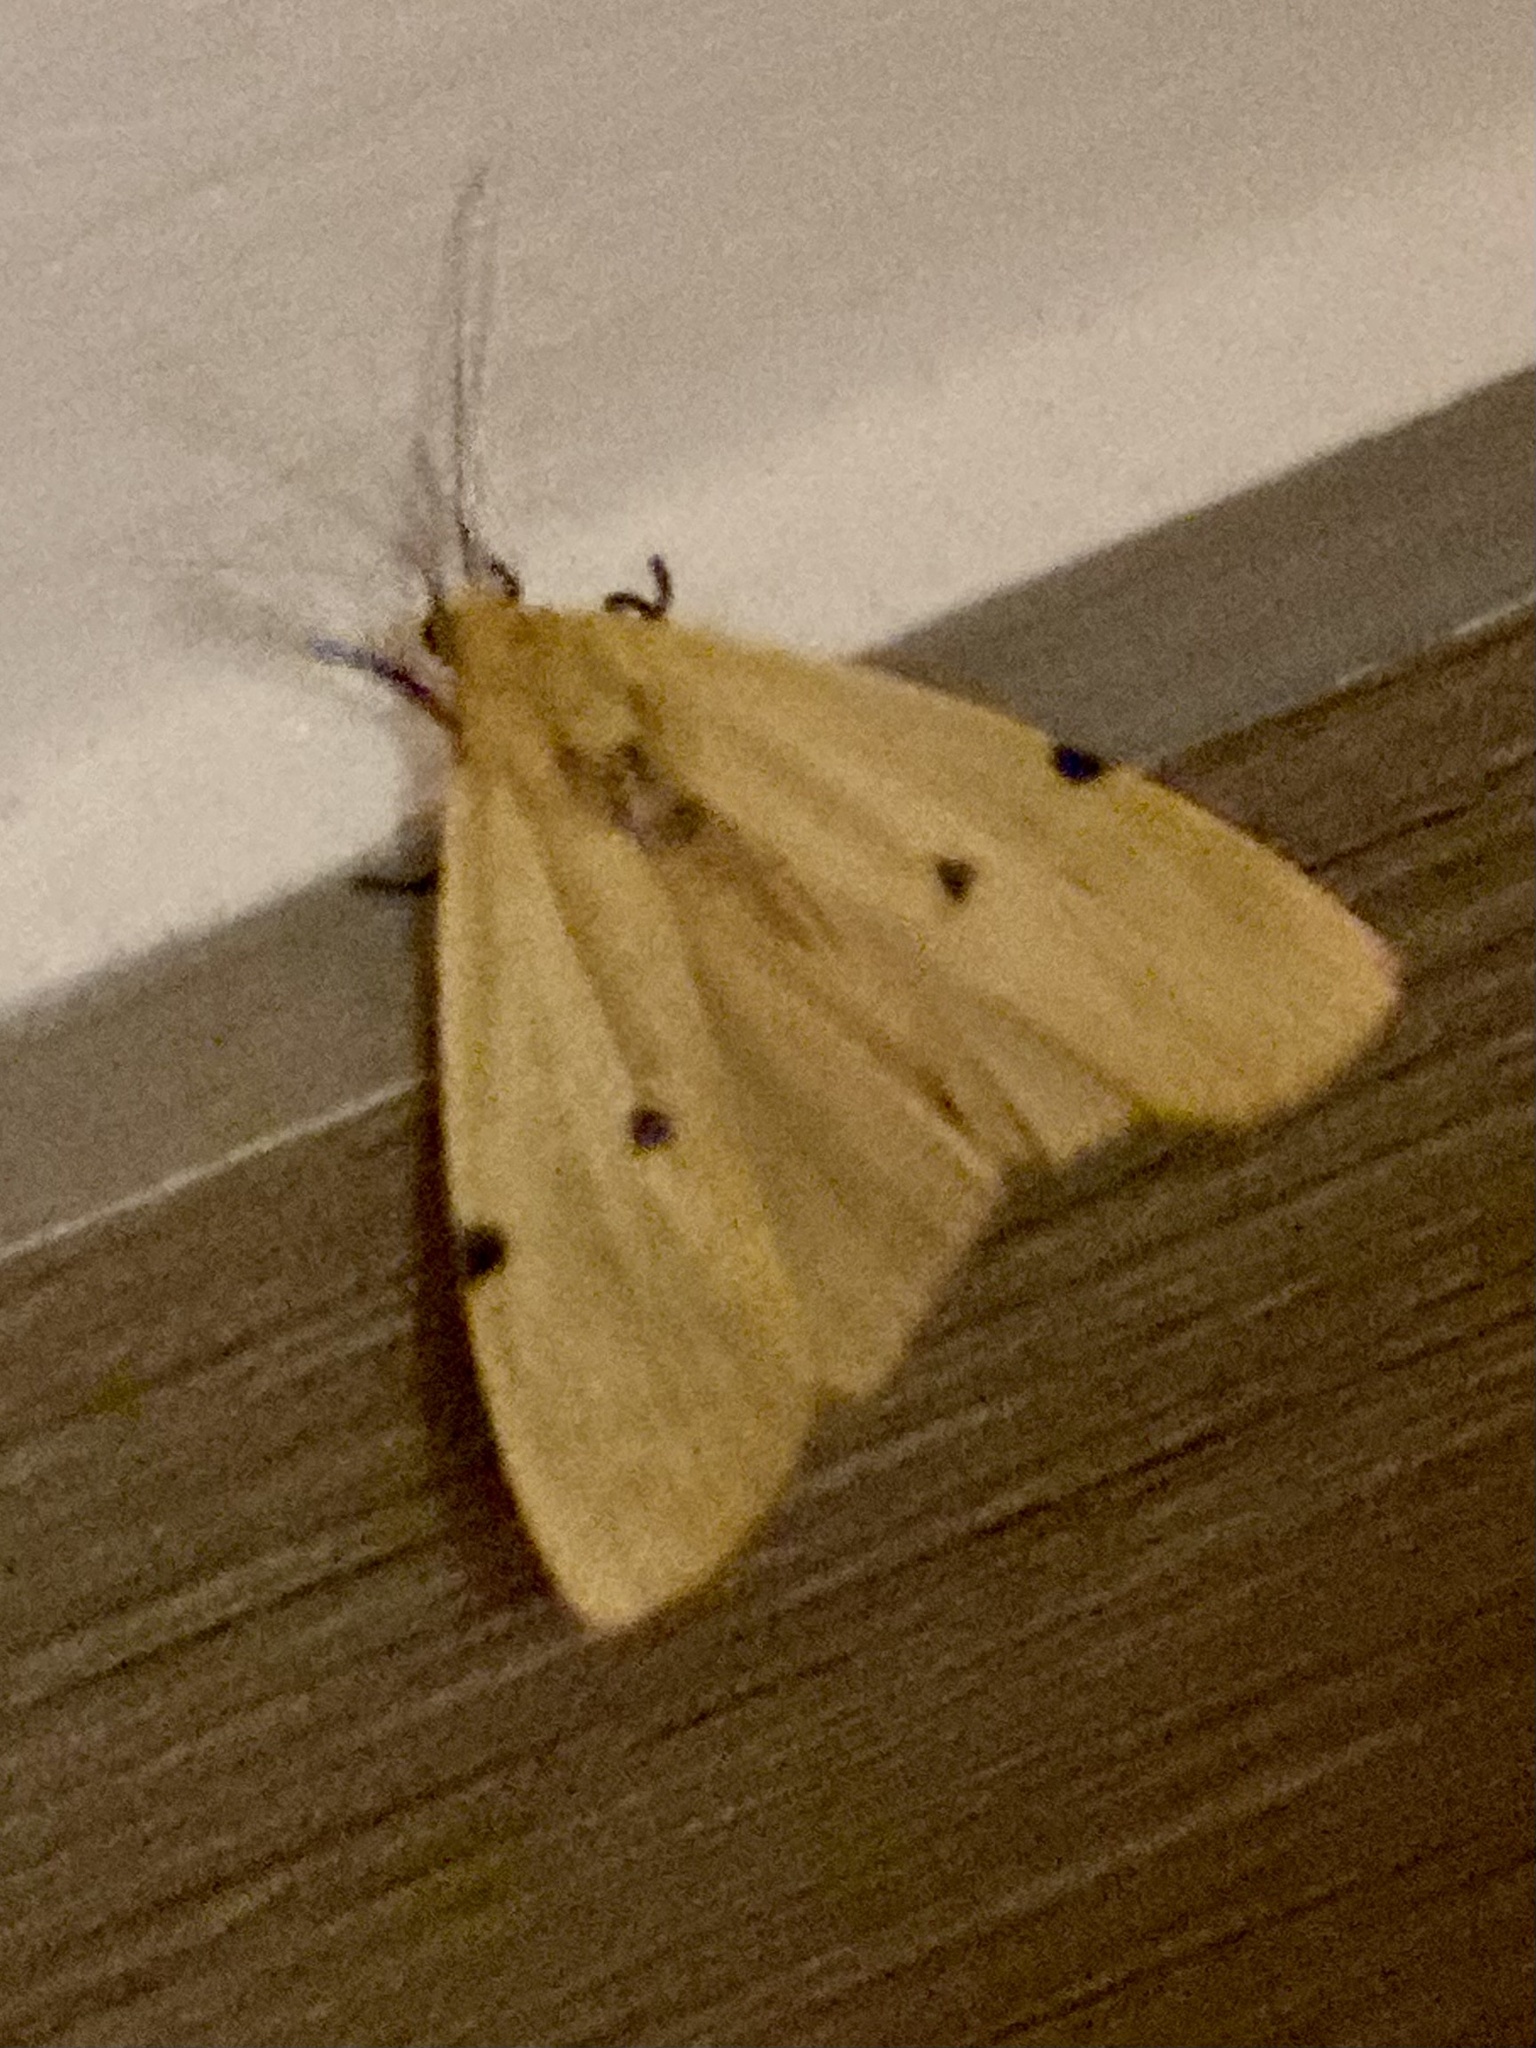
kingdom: Animalia
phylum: Arthropoda
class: Insecta
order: Lepidoptera
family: Erebidae
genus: Lithosia
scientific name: Lithosia quadra
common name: Four-spotted footman
